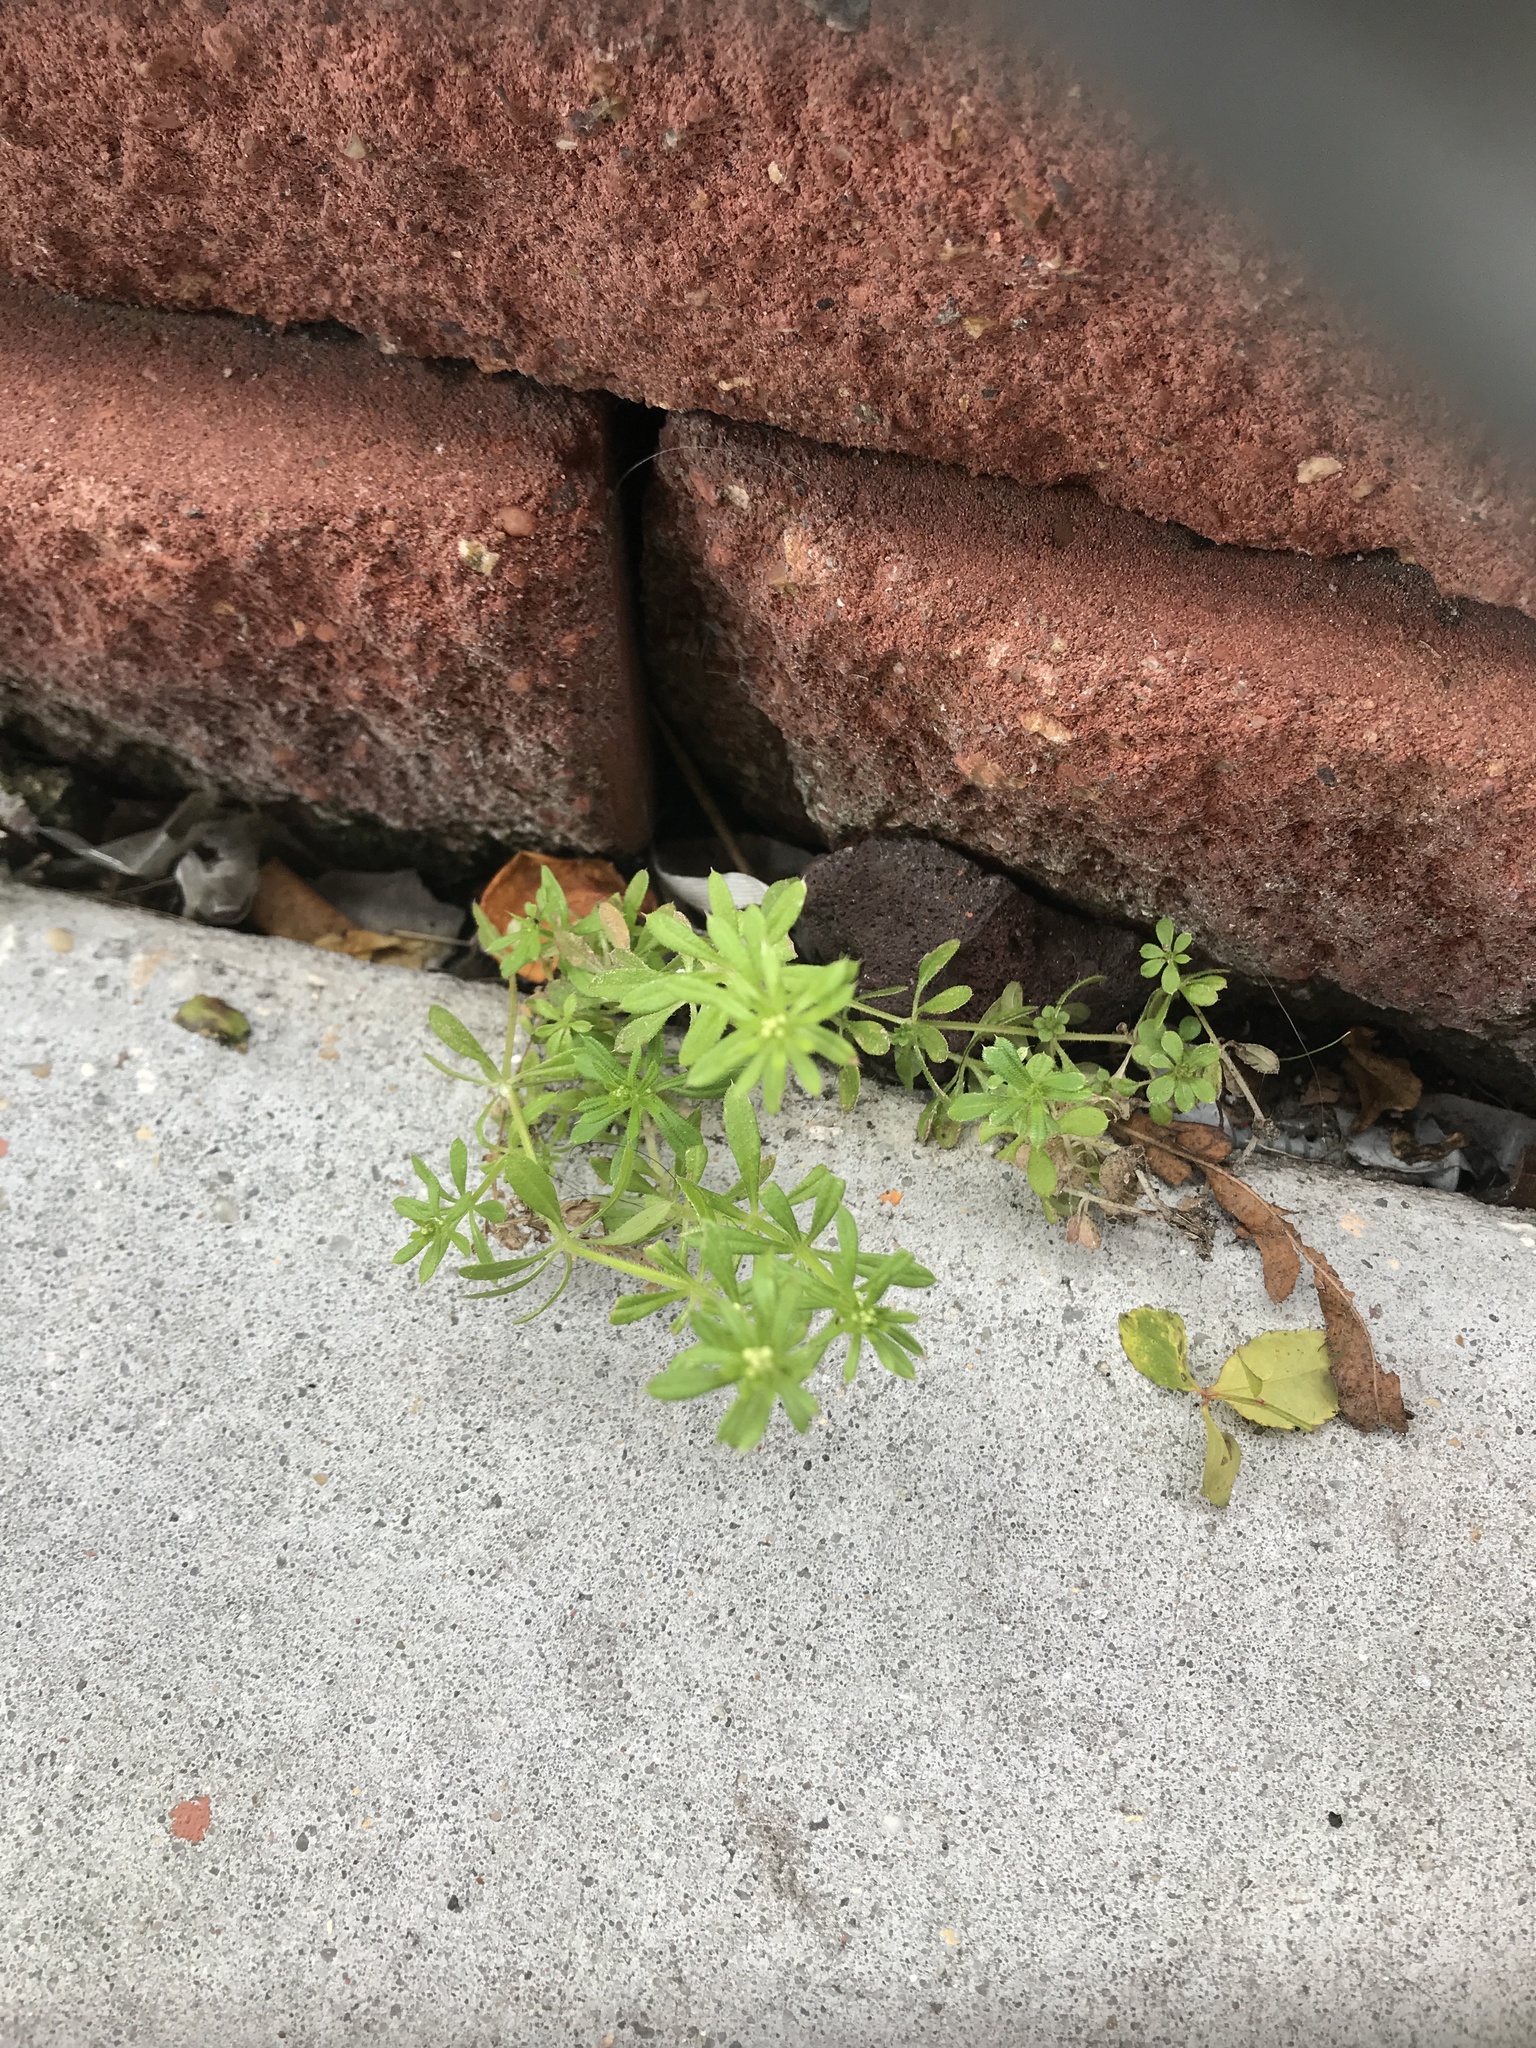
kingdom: Plantae
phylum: Tracheophyta
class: Magnoliopsida
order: Gentianales
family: Rubiaceae
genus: Galium
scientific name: Galium aparine
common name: Cleavers
